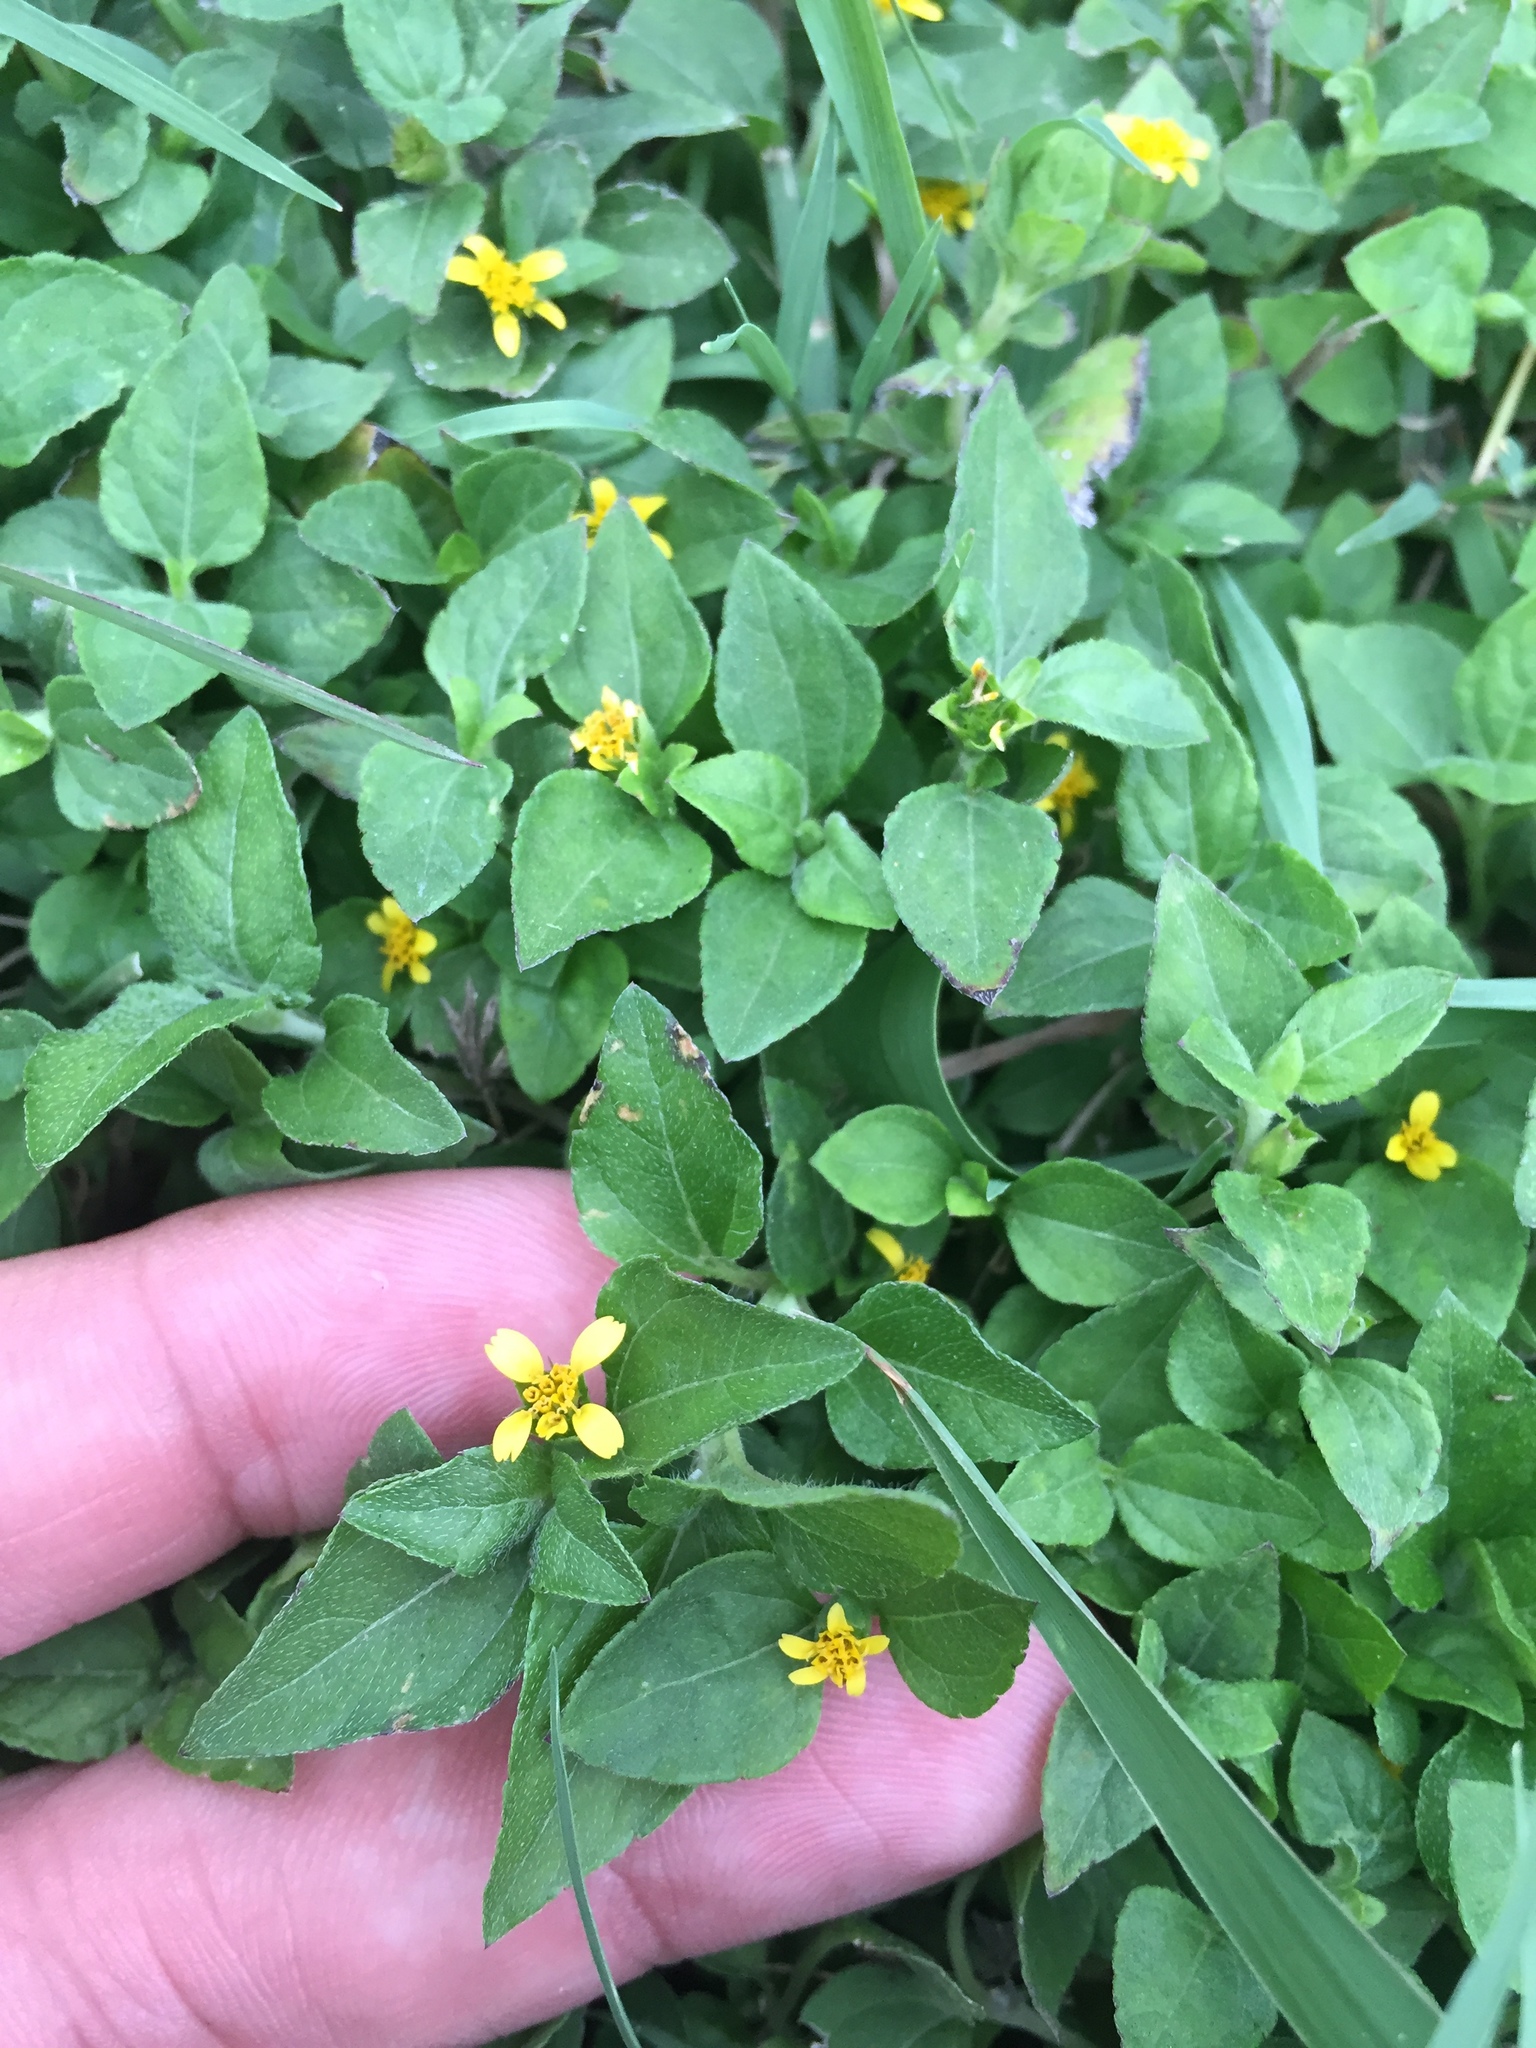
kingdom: Plantae
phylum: Tracheophyta
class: Magnoliopsida
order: Asterales
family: Asteraceae
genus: Calyptocarpus
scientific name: Calyptocarpus vialis
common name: Straggler daisy
